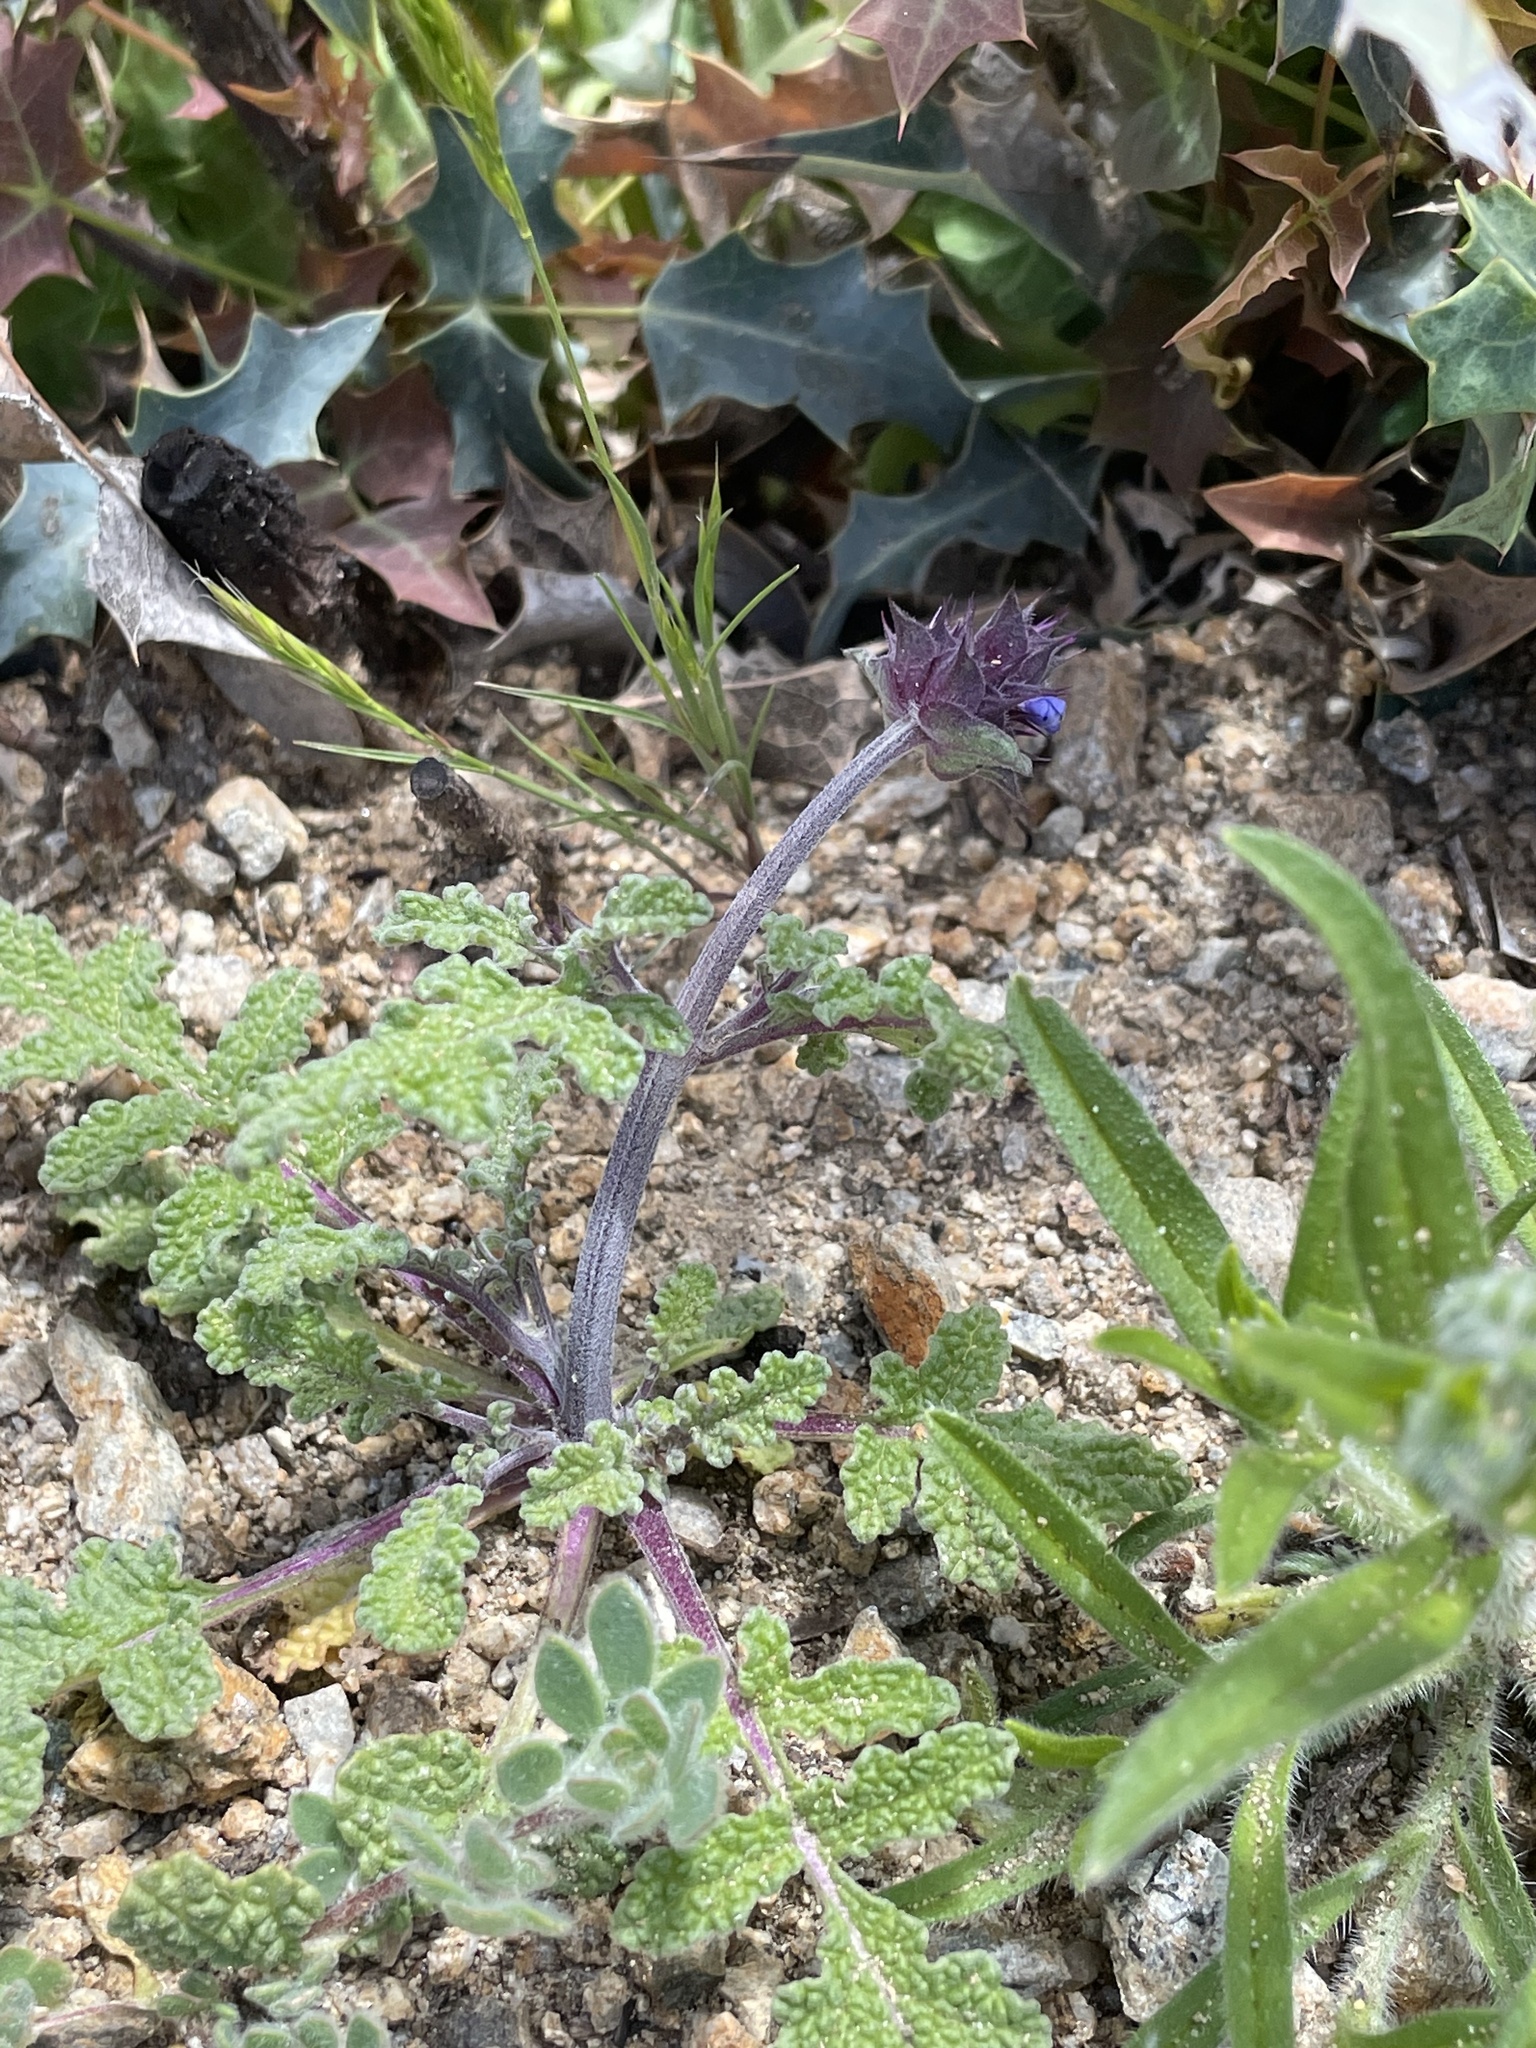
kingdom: Plantae
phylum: Tracheophyta
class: Magnoliopsida
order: Lamiales
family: Lamiaceae
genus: Salvia
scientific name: Salvia columbariae
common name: Chia
